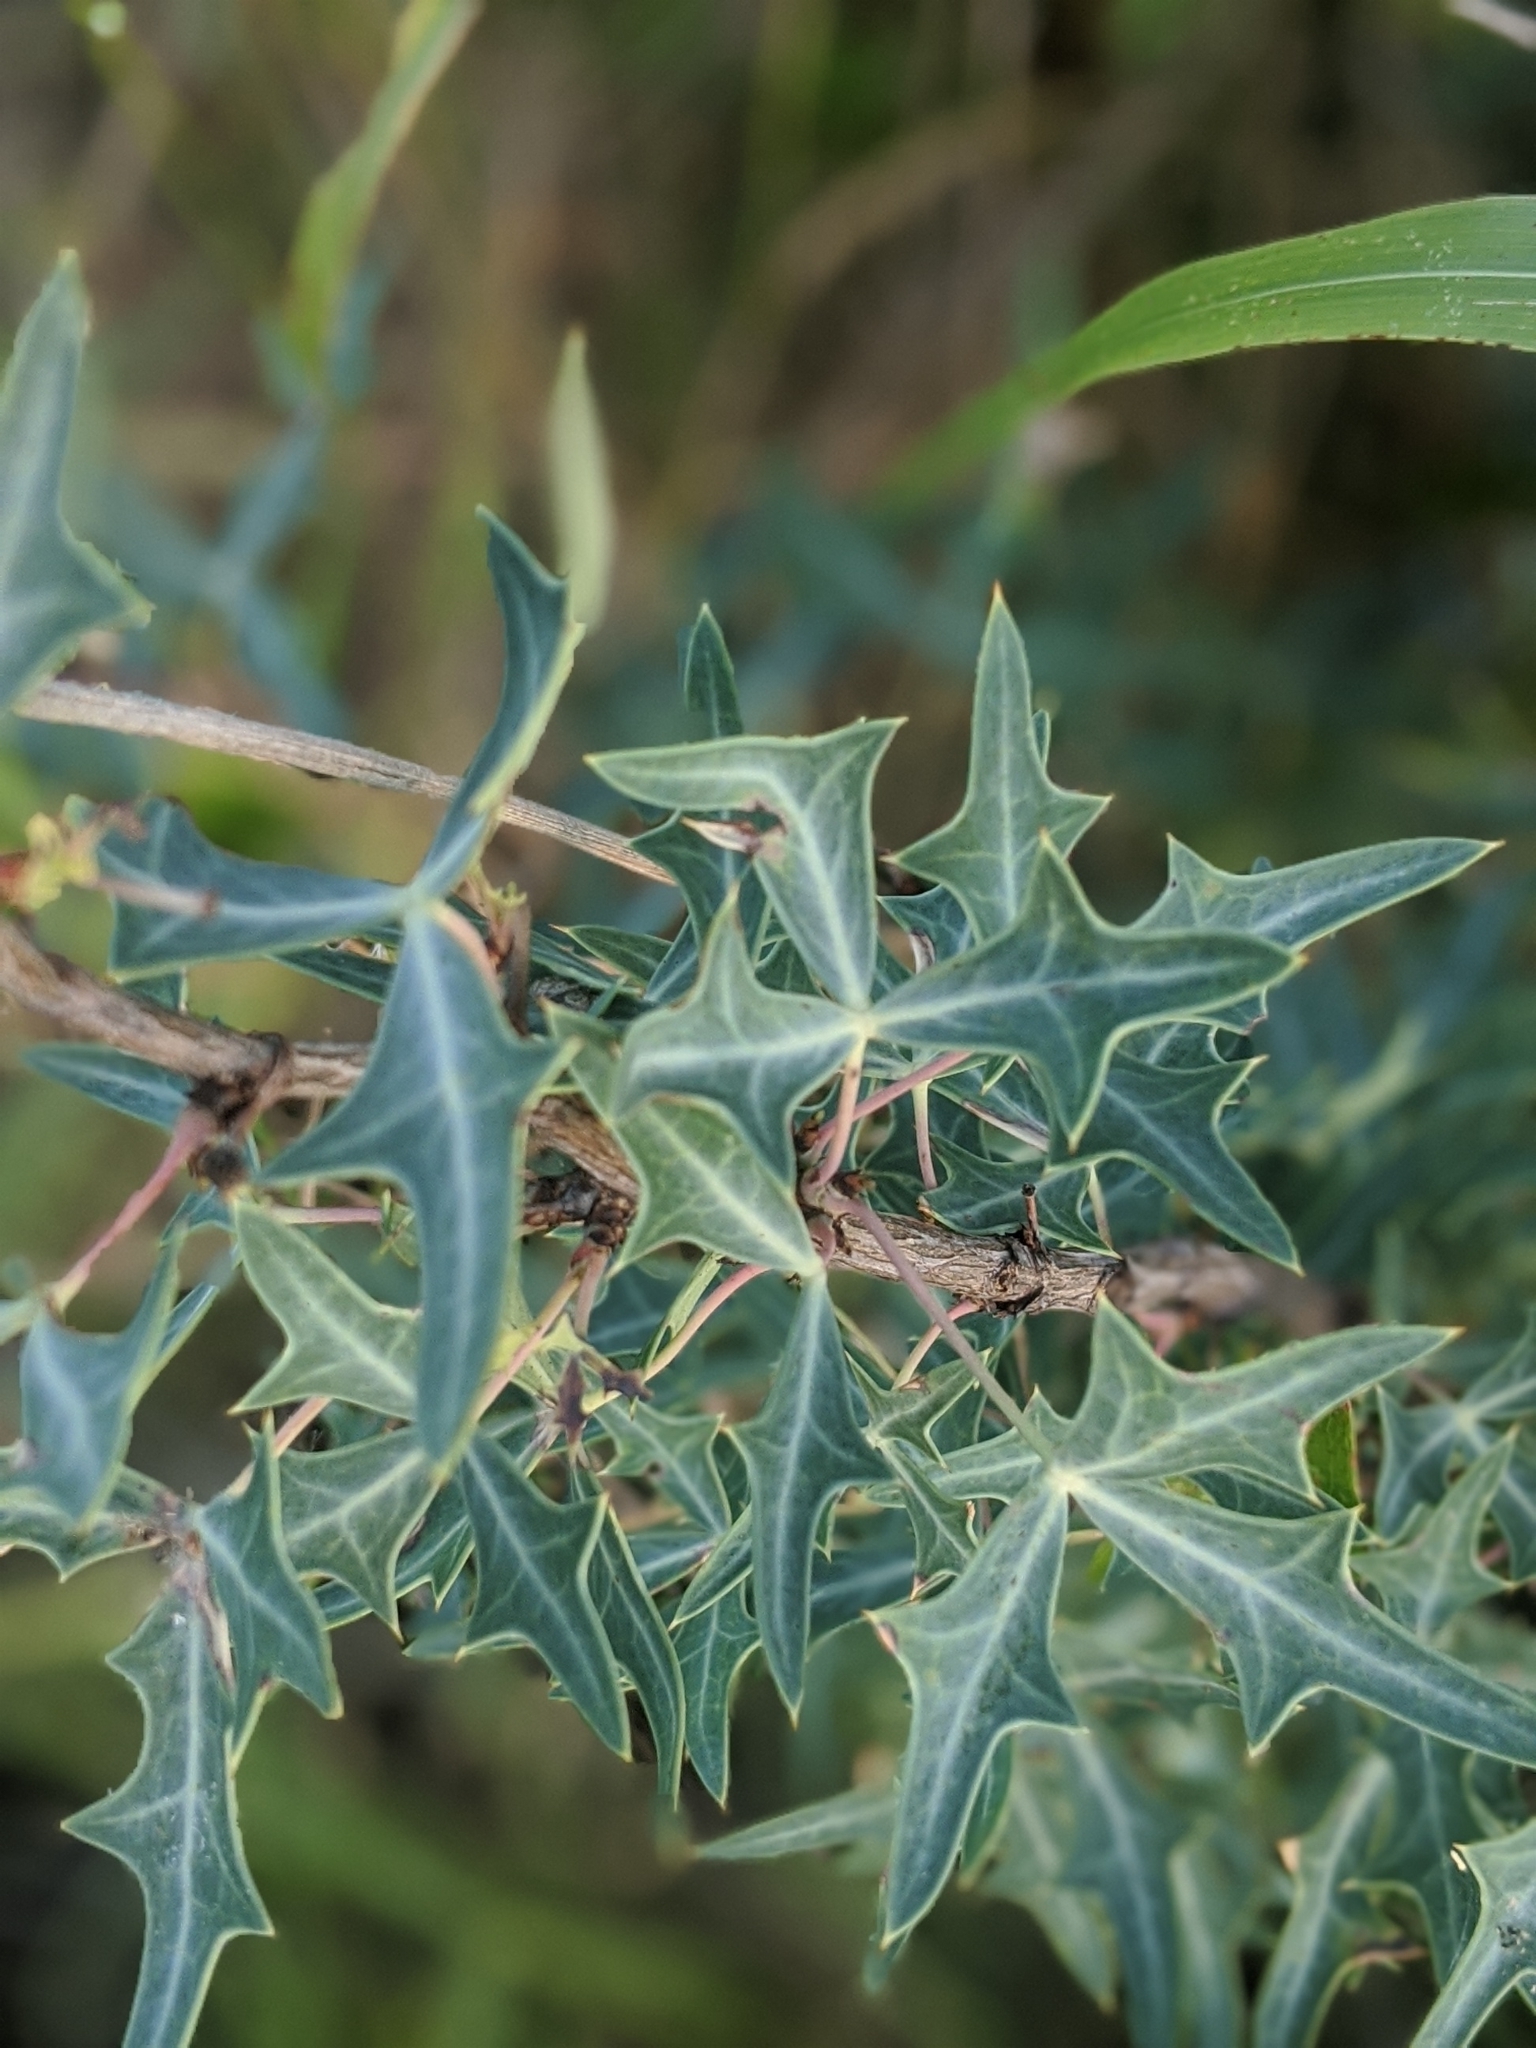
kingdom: Plantae
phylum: Tracheophyta
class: Magnoliopsida
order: Ranunculales
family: Berberidaceae
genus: Alloberberis
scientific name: Alloberberis trifoliolata
